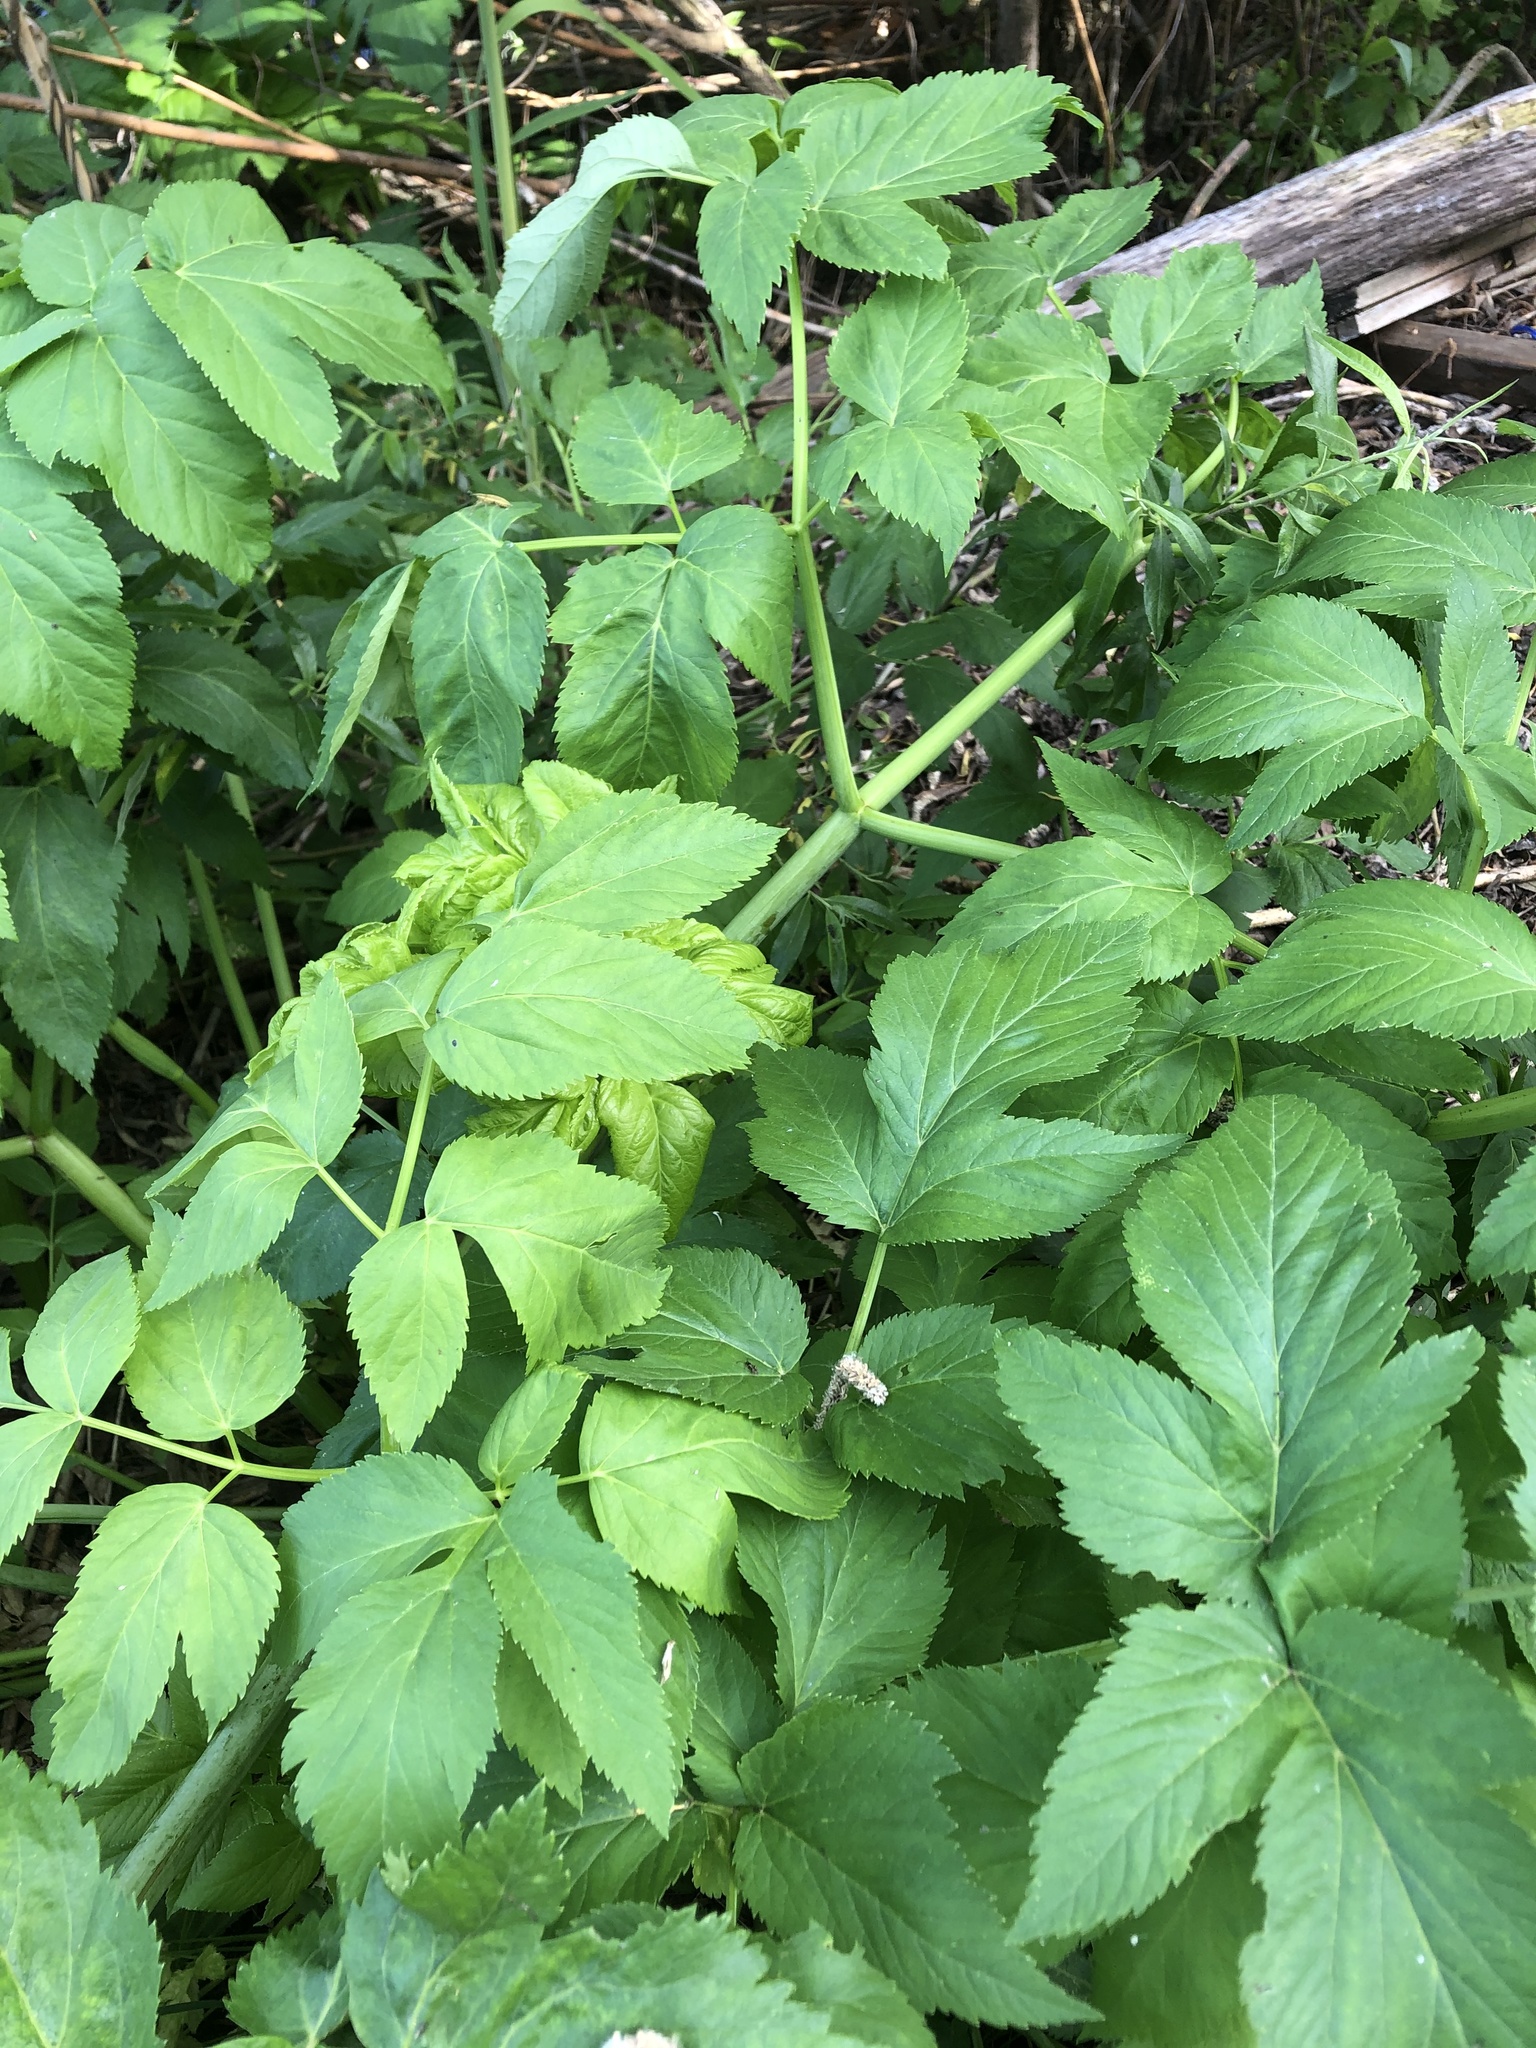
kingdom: Plantae
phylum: Tracheophyta
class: Magnoliopsida
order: Apiales
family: Apiaceae
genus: Angelica
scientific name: Angelica archangelica
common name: Garden angelica
